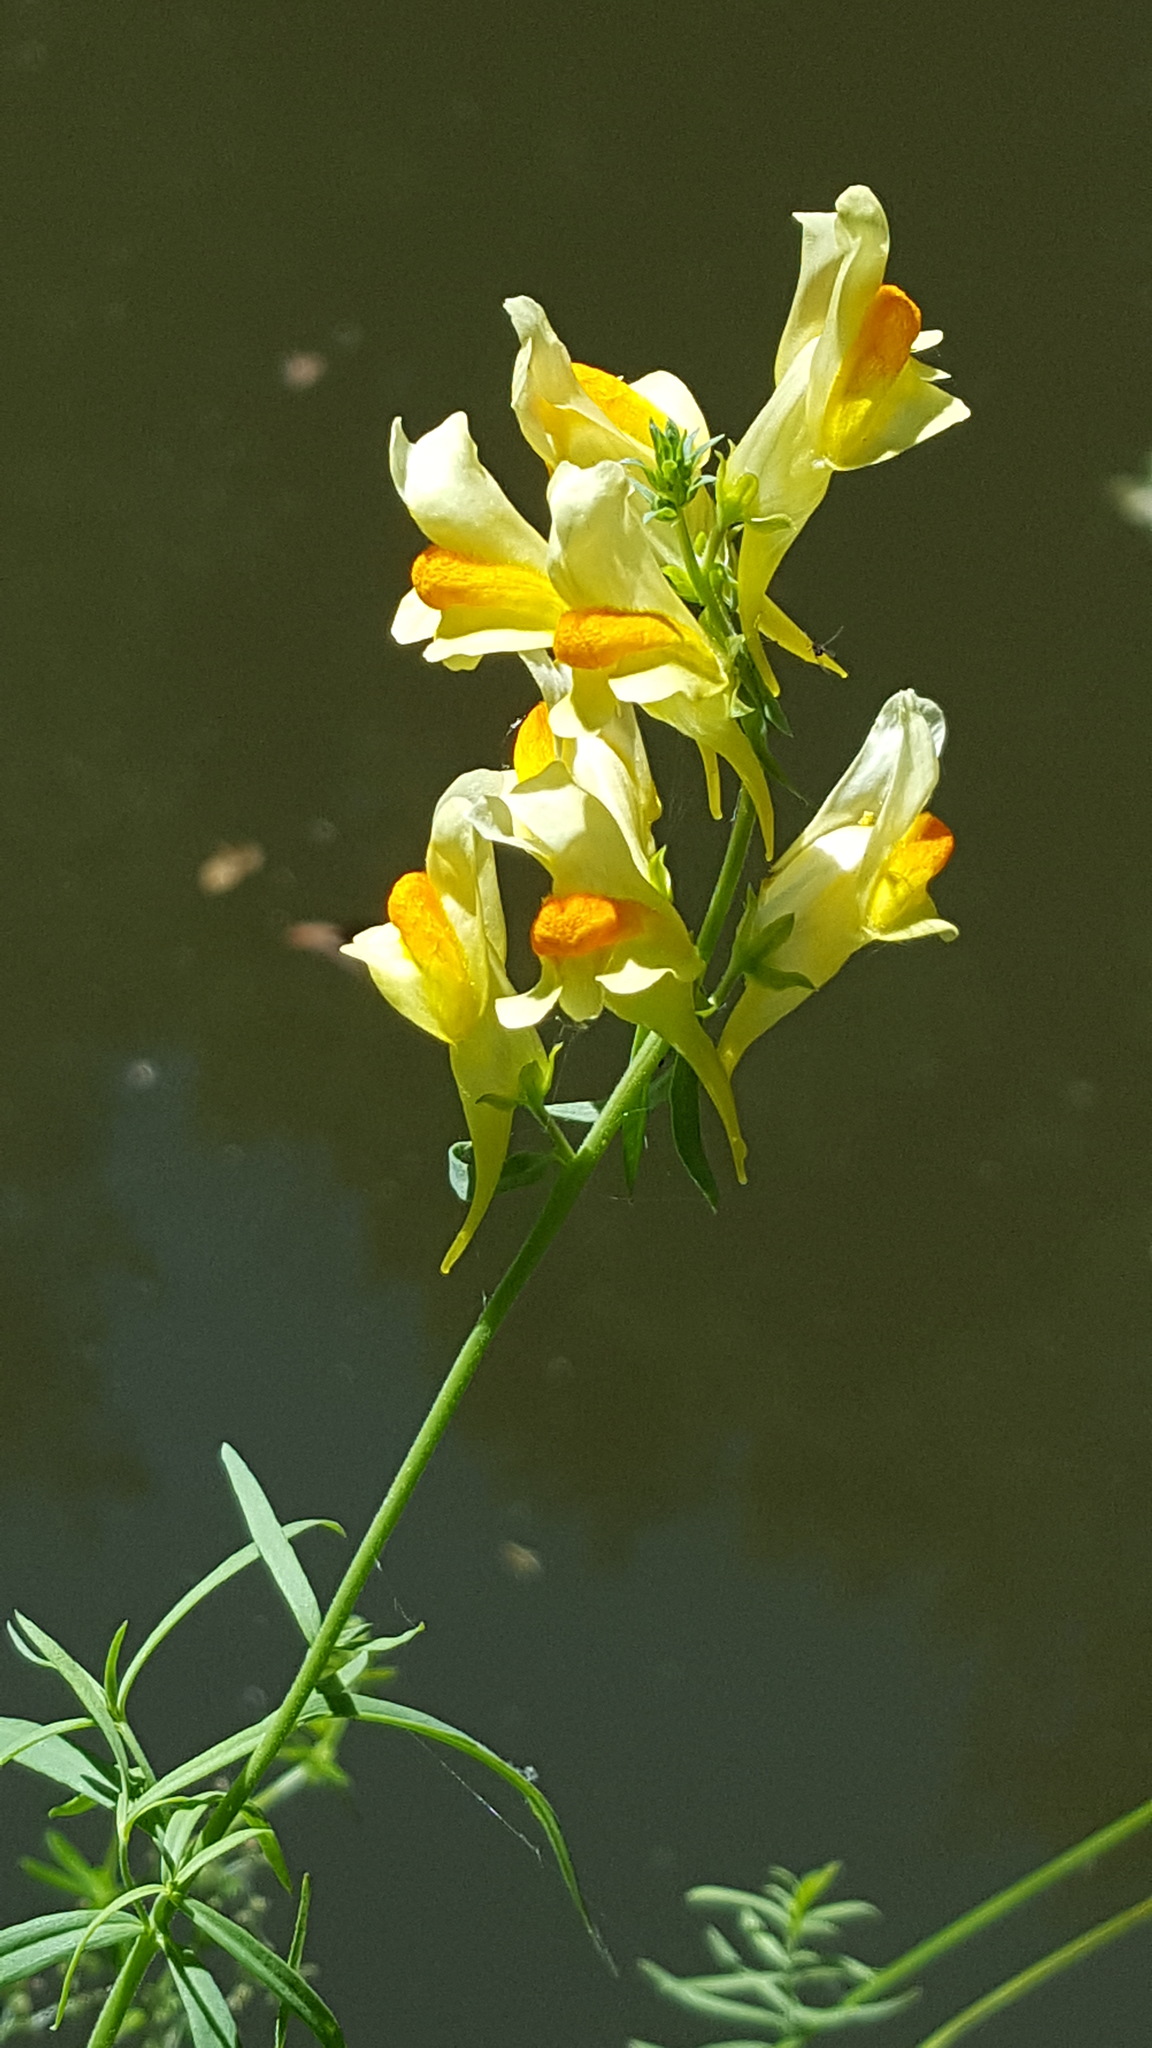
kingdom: Plantae
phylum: Tracheophyta
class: Magnoliopsida
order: Lamiales
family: Plantaginaceae
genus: Linaria
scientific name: Linaria vulgaris
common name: Butter and eggs
